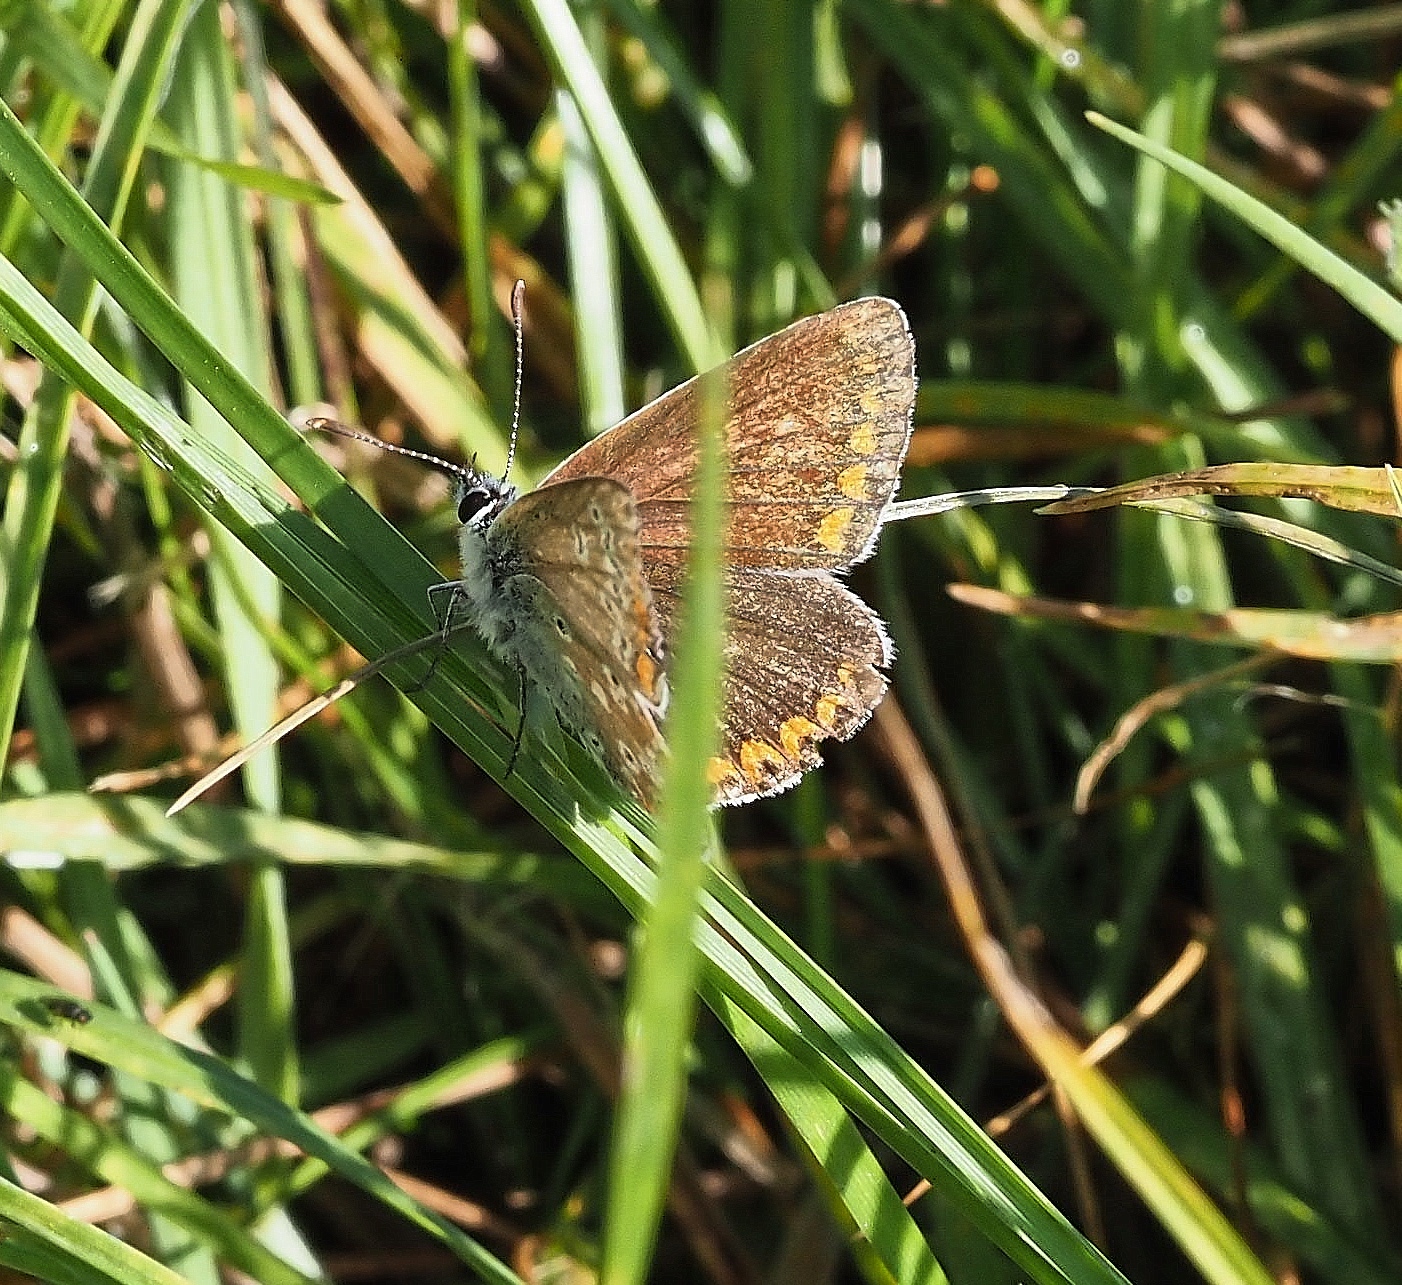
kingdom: Animalia
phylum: Arthropoda
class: Insecta
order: Lepidoptera
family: Lycaenidae
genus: Aricia
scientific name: Aricia agestis
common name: Brown argus
